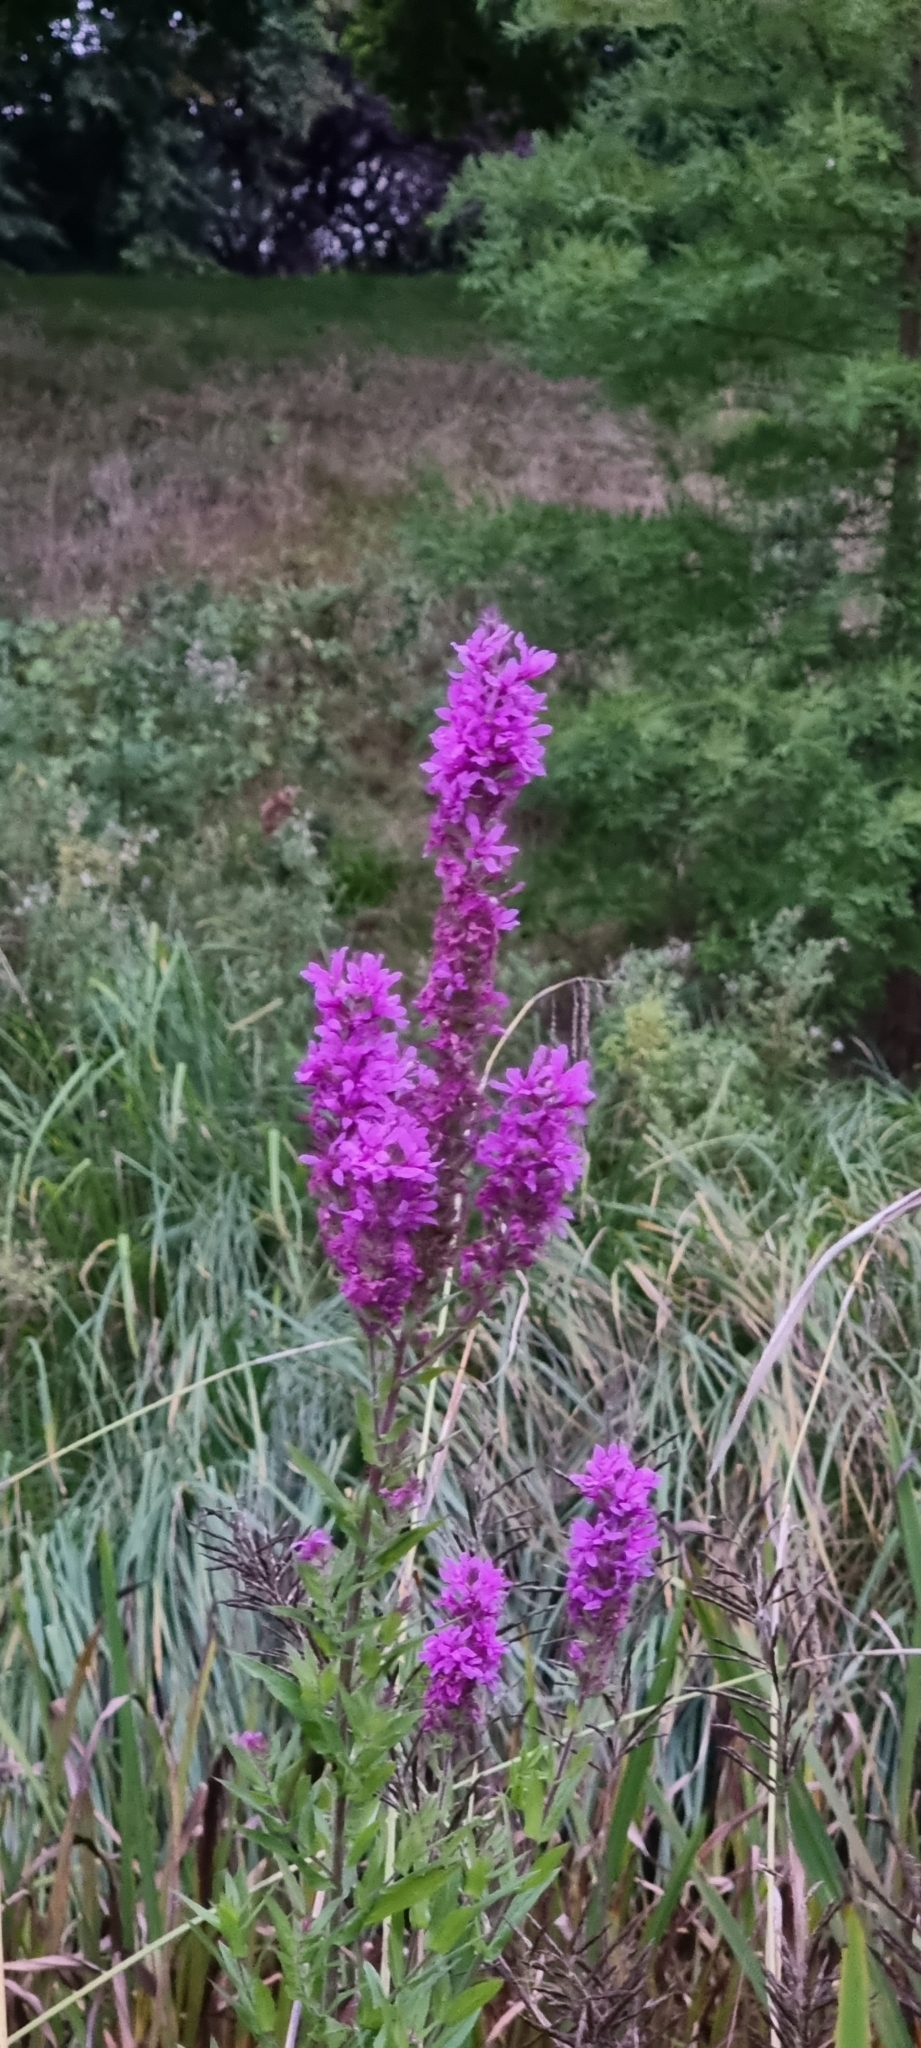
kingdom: Plantae
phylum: Tracheophyta
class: Magnoliopsida
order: Myrtales
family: Lythraceae
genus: Lythrum
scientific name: Lythrum salicaria
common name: Purple loosestrife
